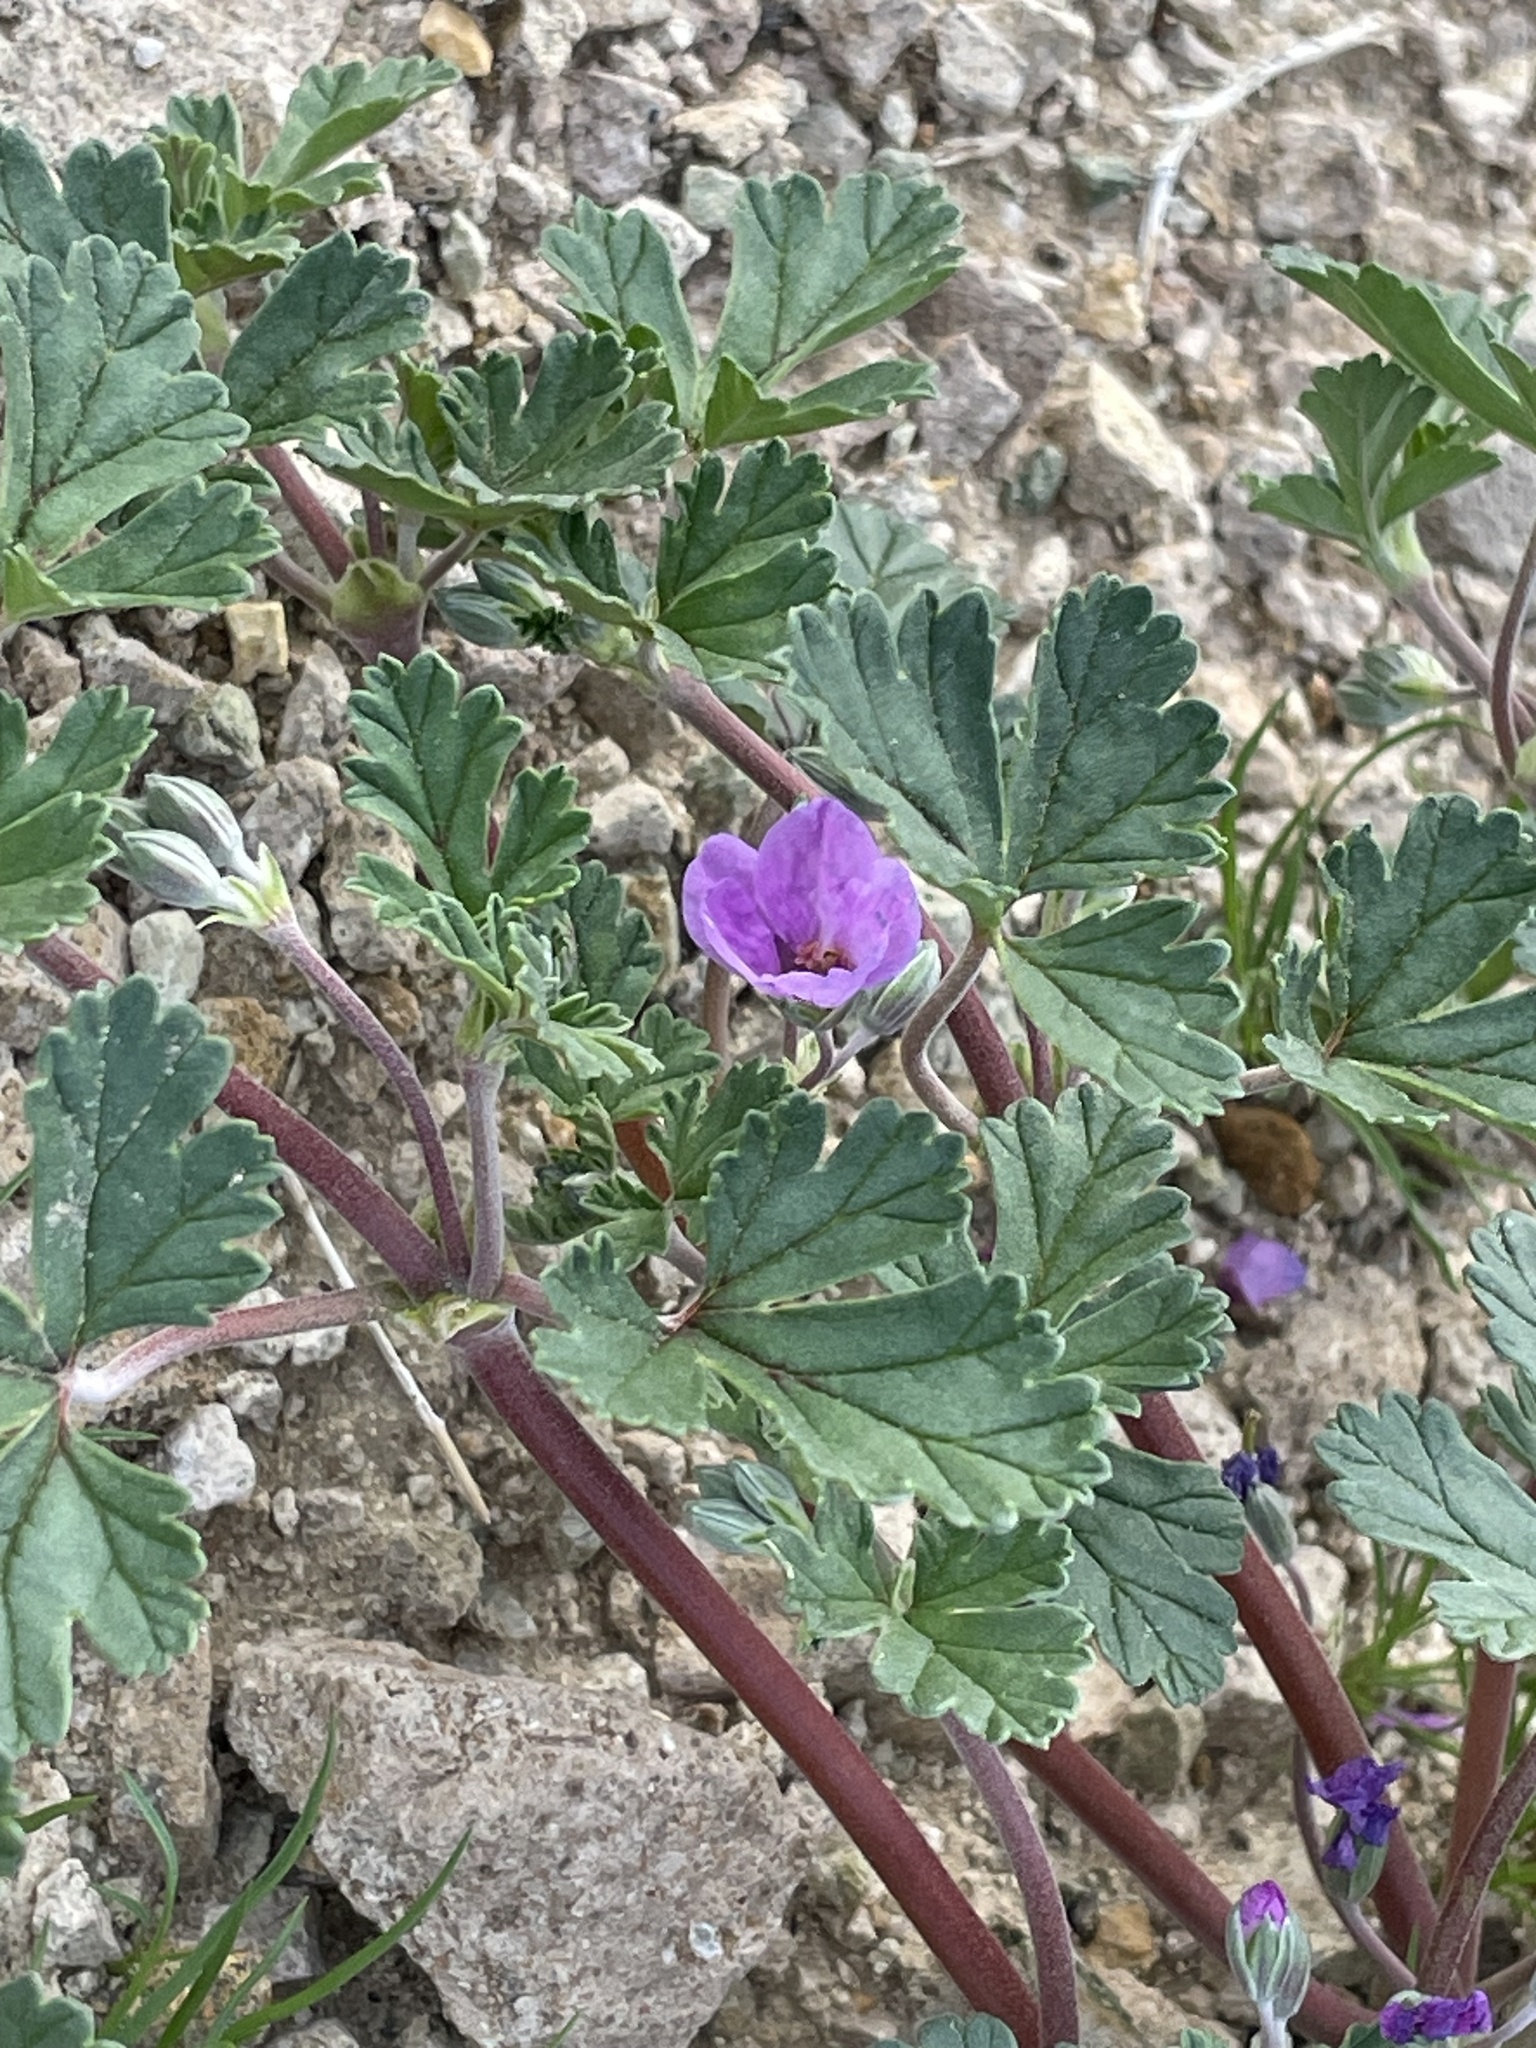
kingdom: Plantae
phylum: Tracheophyta
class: Magnoliopsida
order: Geraniales
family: Geraniaceae
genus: Erodium
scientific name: Erodium texanum
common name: Texas stork's-bill
